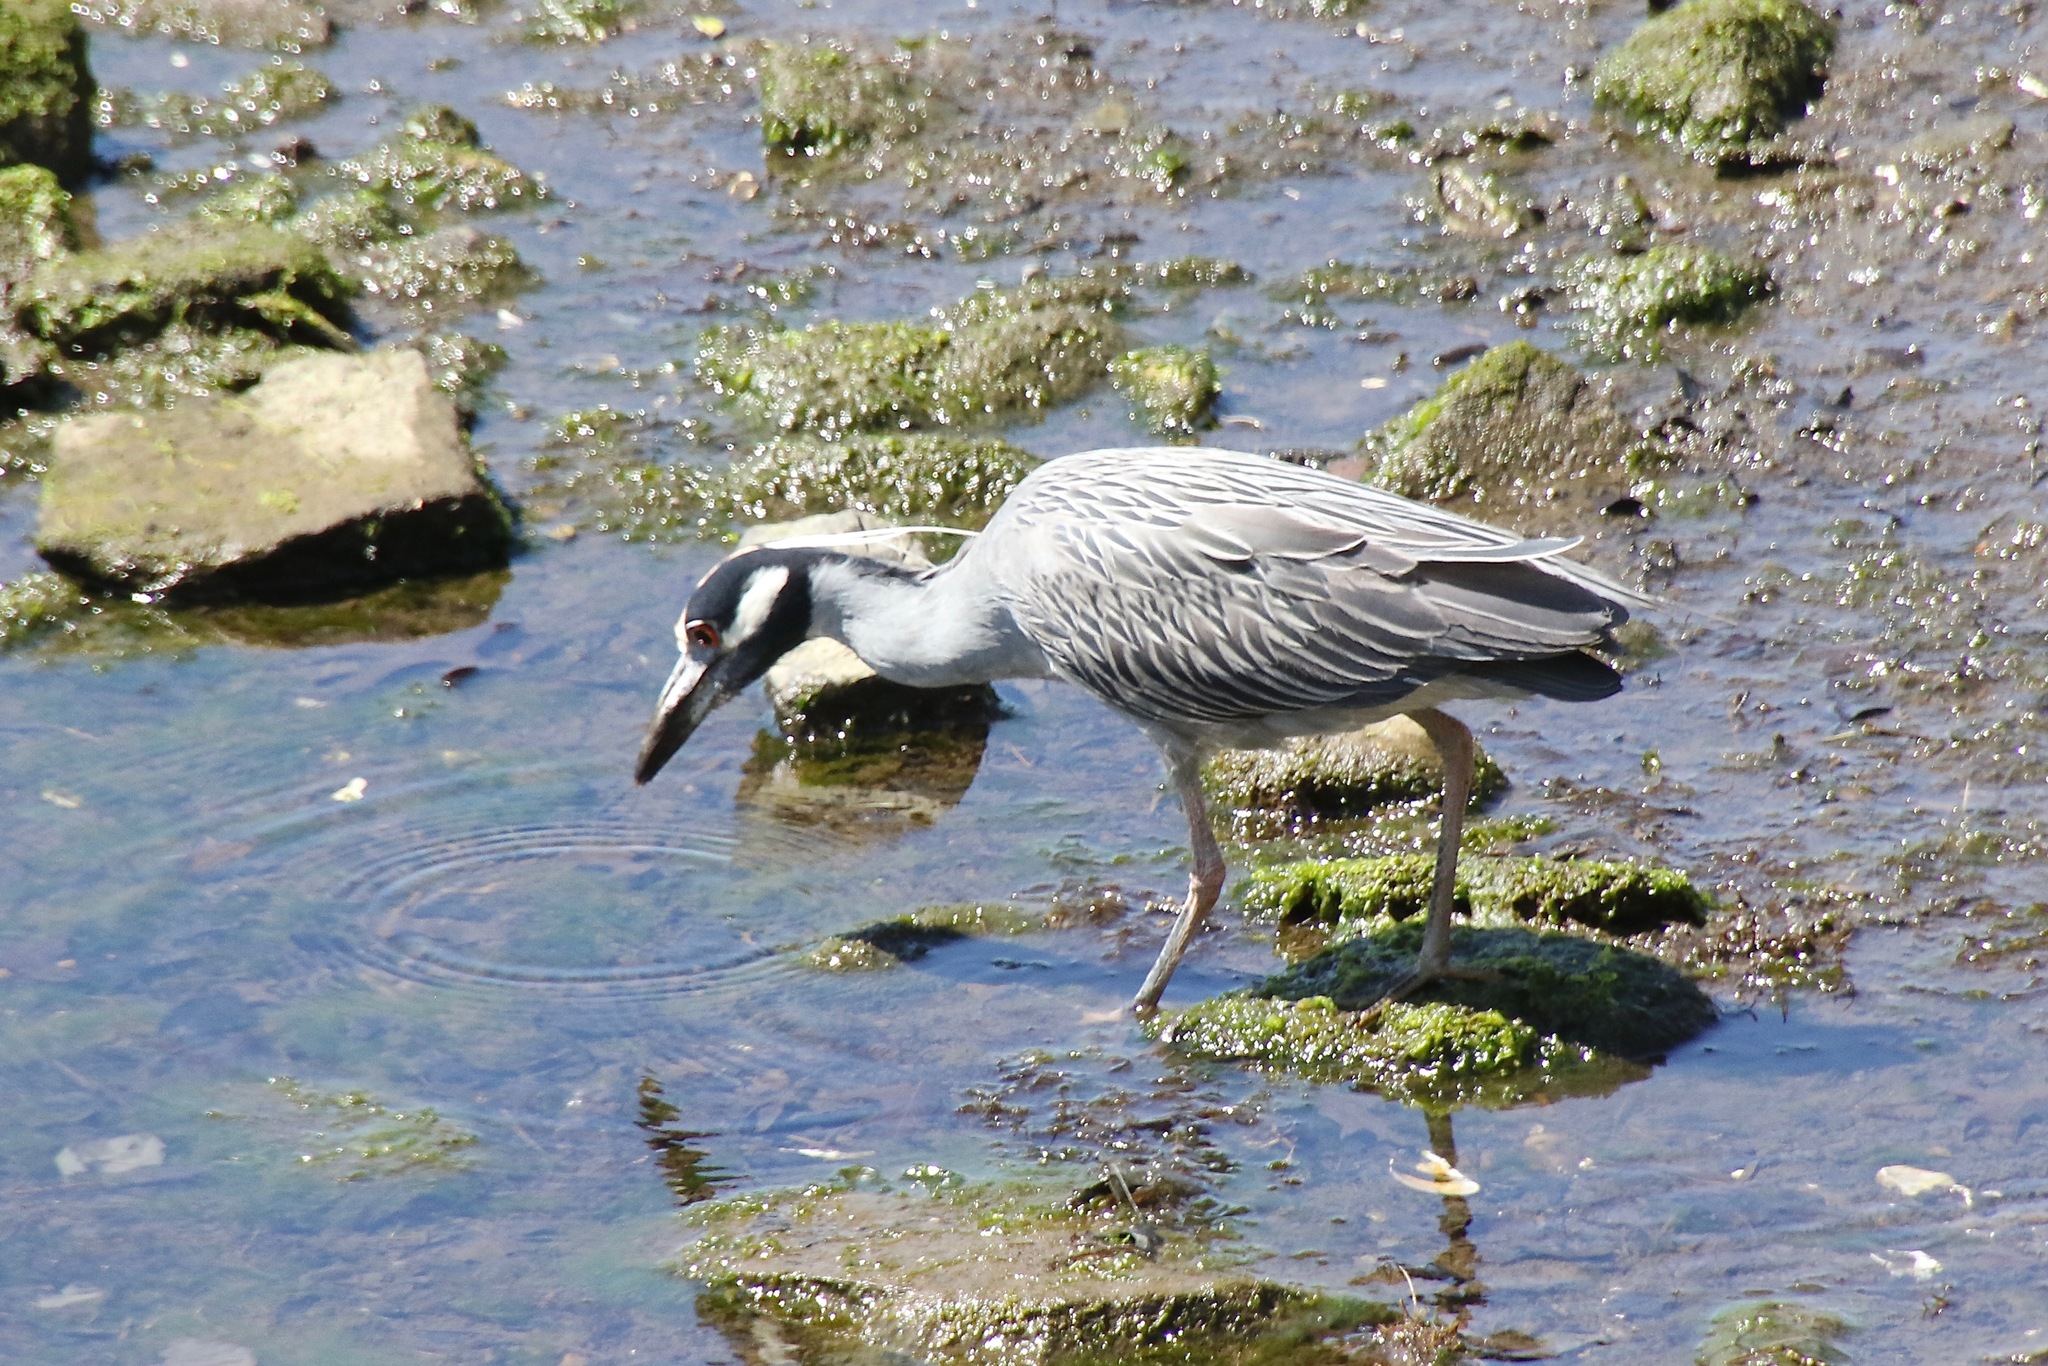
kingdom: Animalia
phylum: Chordata
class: Aves
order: Pelecaniformes
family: Ardeidae
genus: Nyctanassa
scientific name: Nyctanassa violacea
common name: Yellow-crowned night heron
